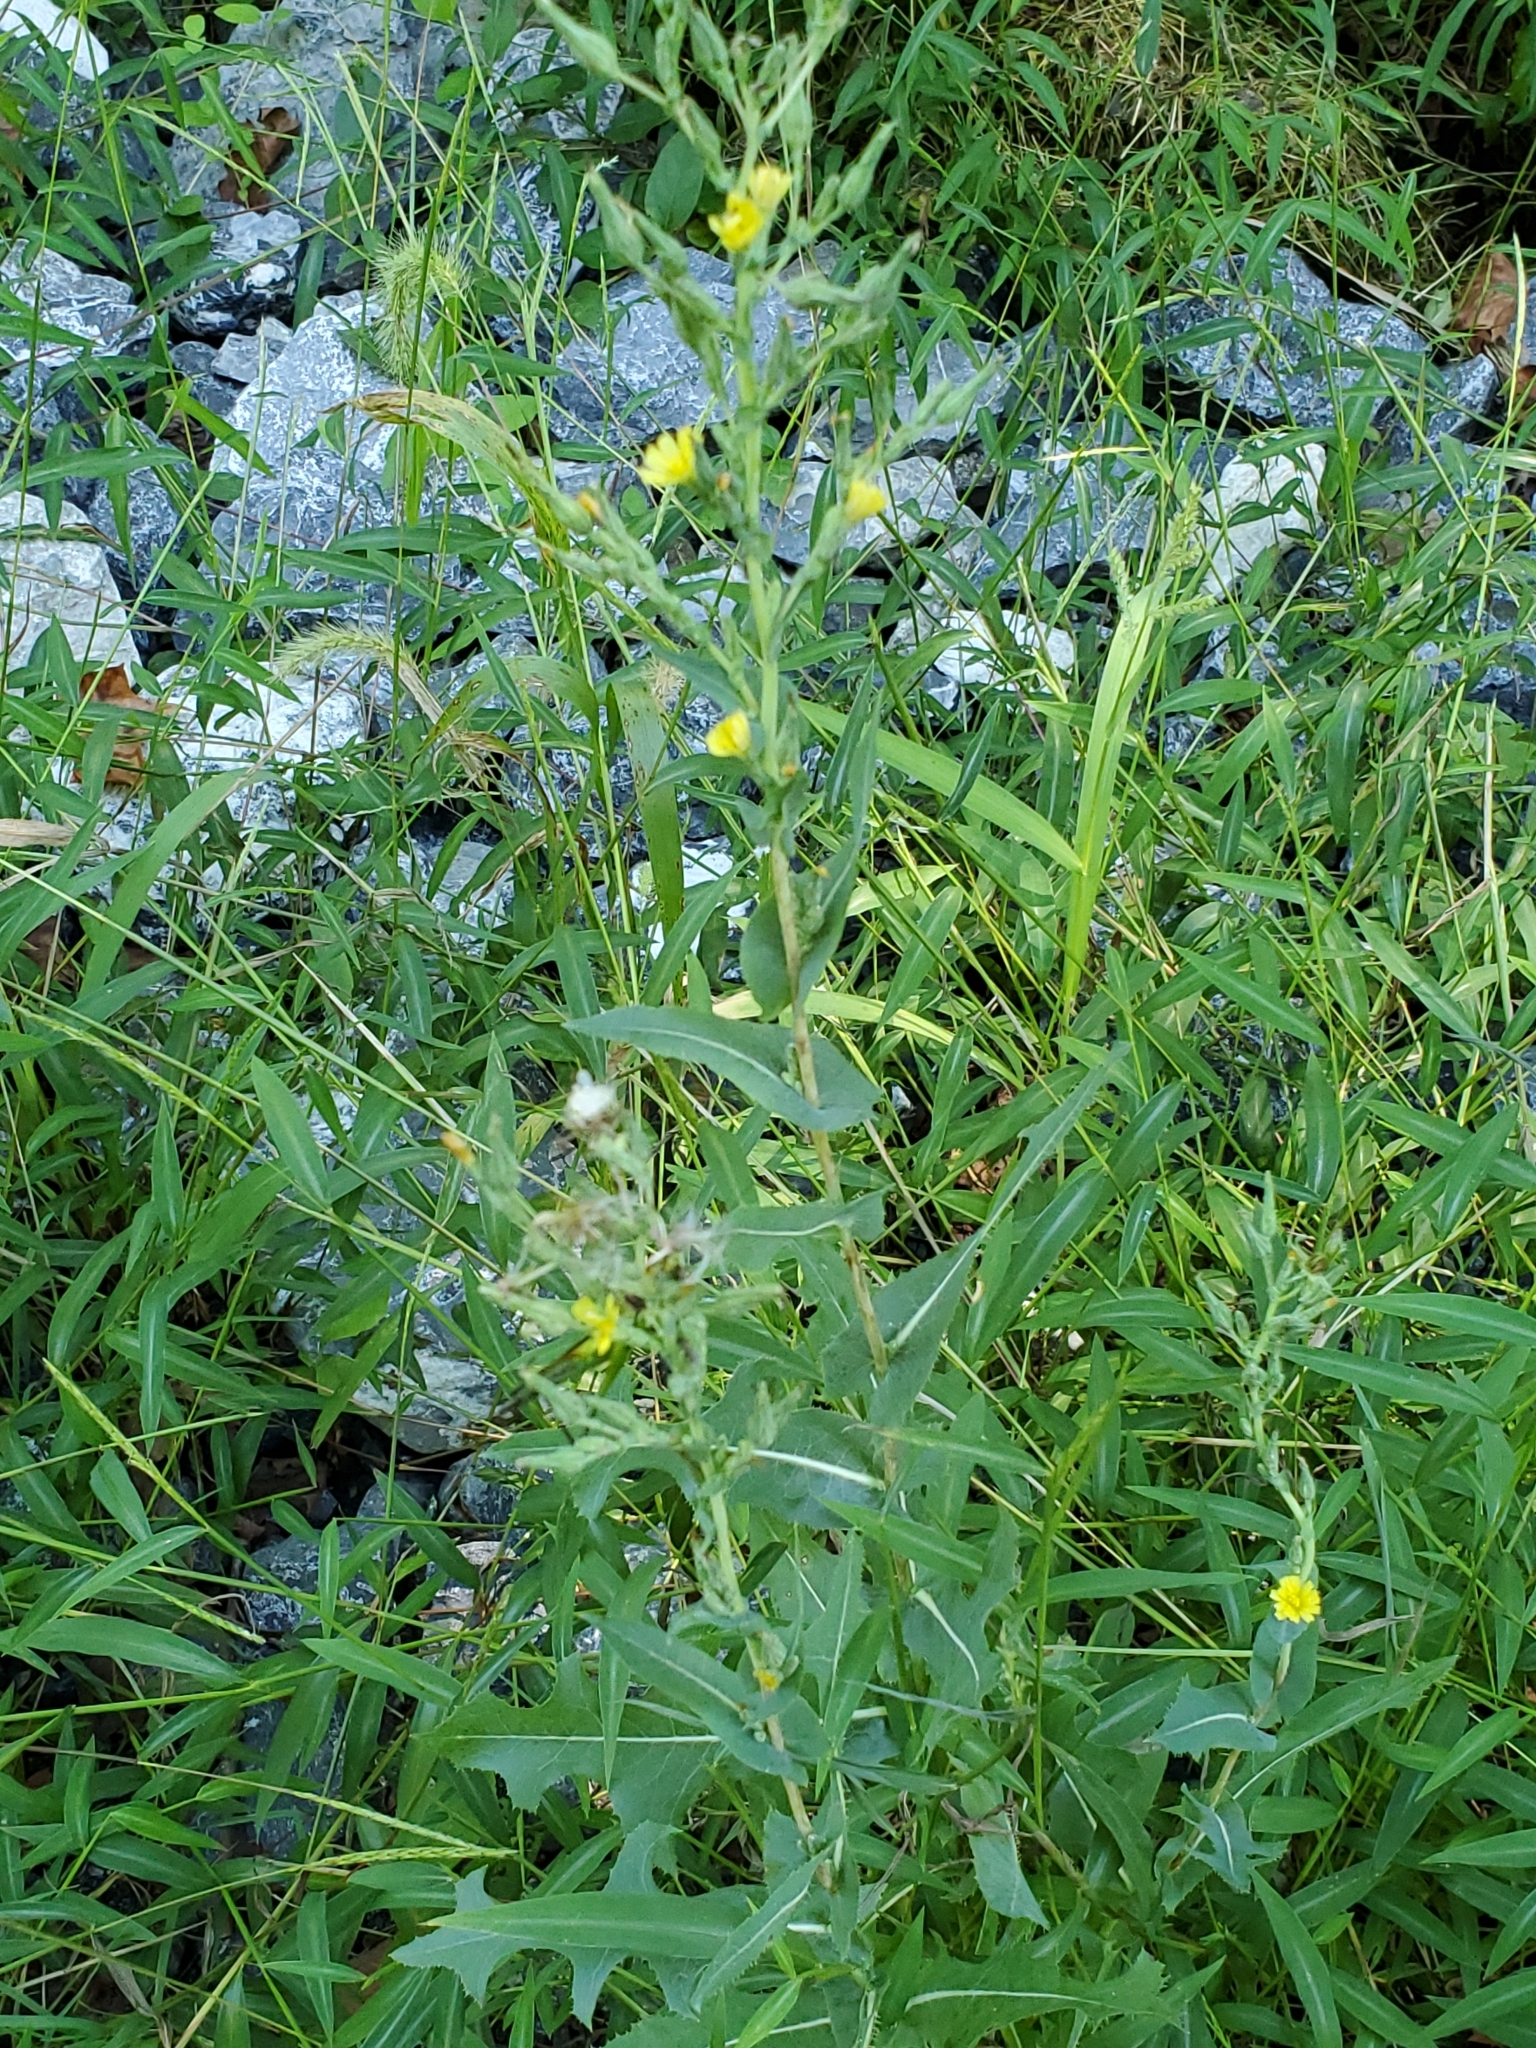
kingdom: Plantae
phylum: Tracheophyta
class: Magnoliopsida
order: Asterales
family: Asteraceae
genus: Lactuca
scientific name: Lactuca serriola
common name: Prickly lettuce
